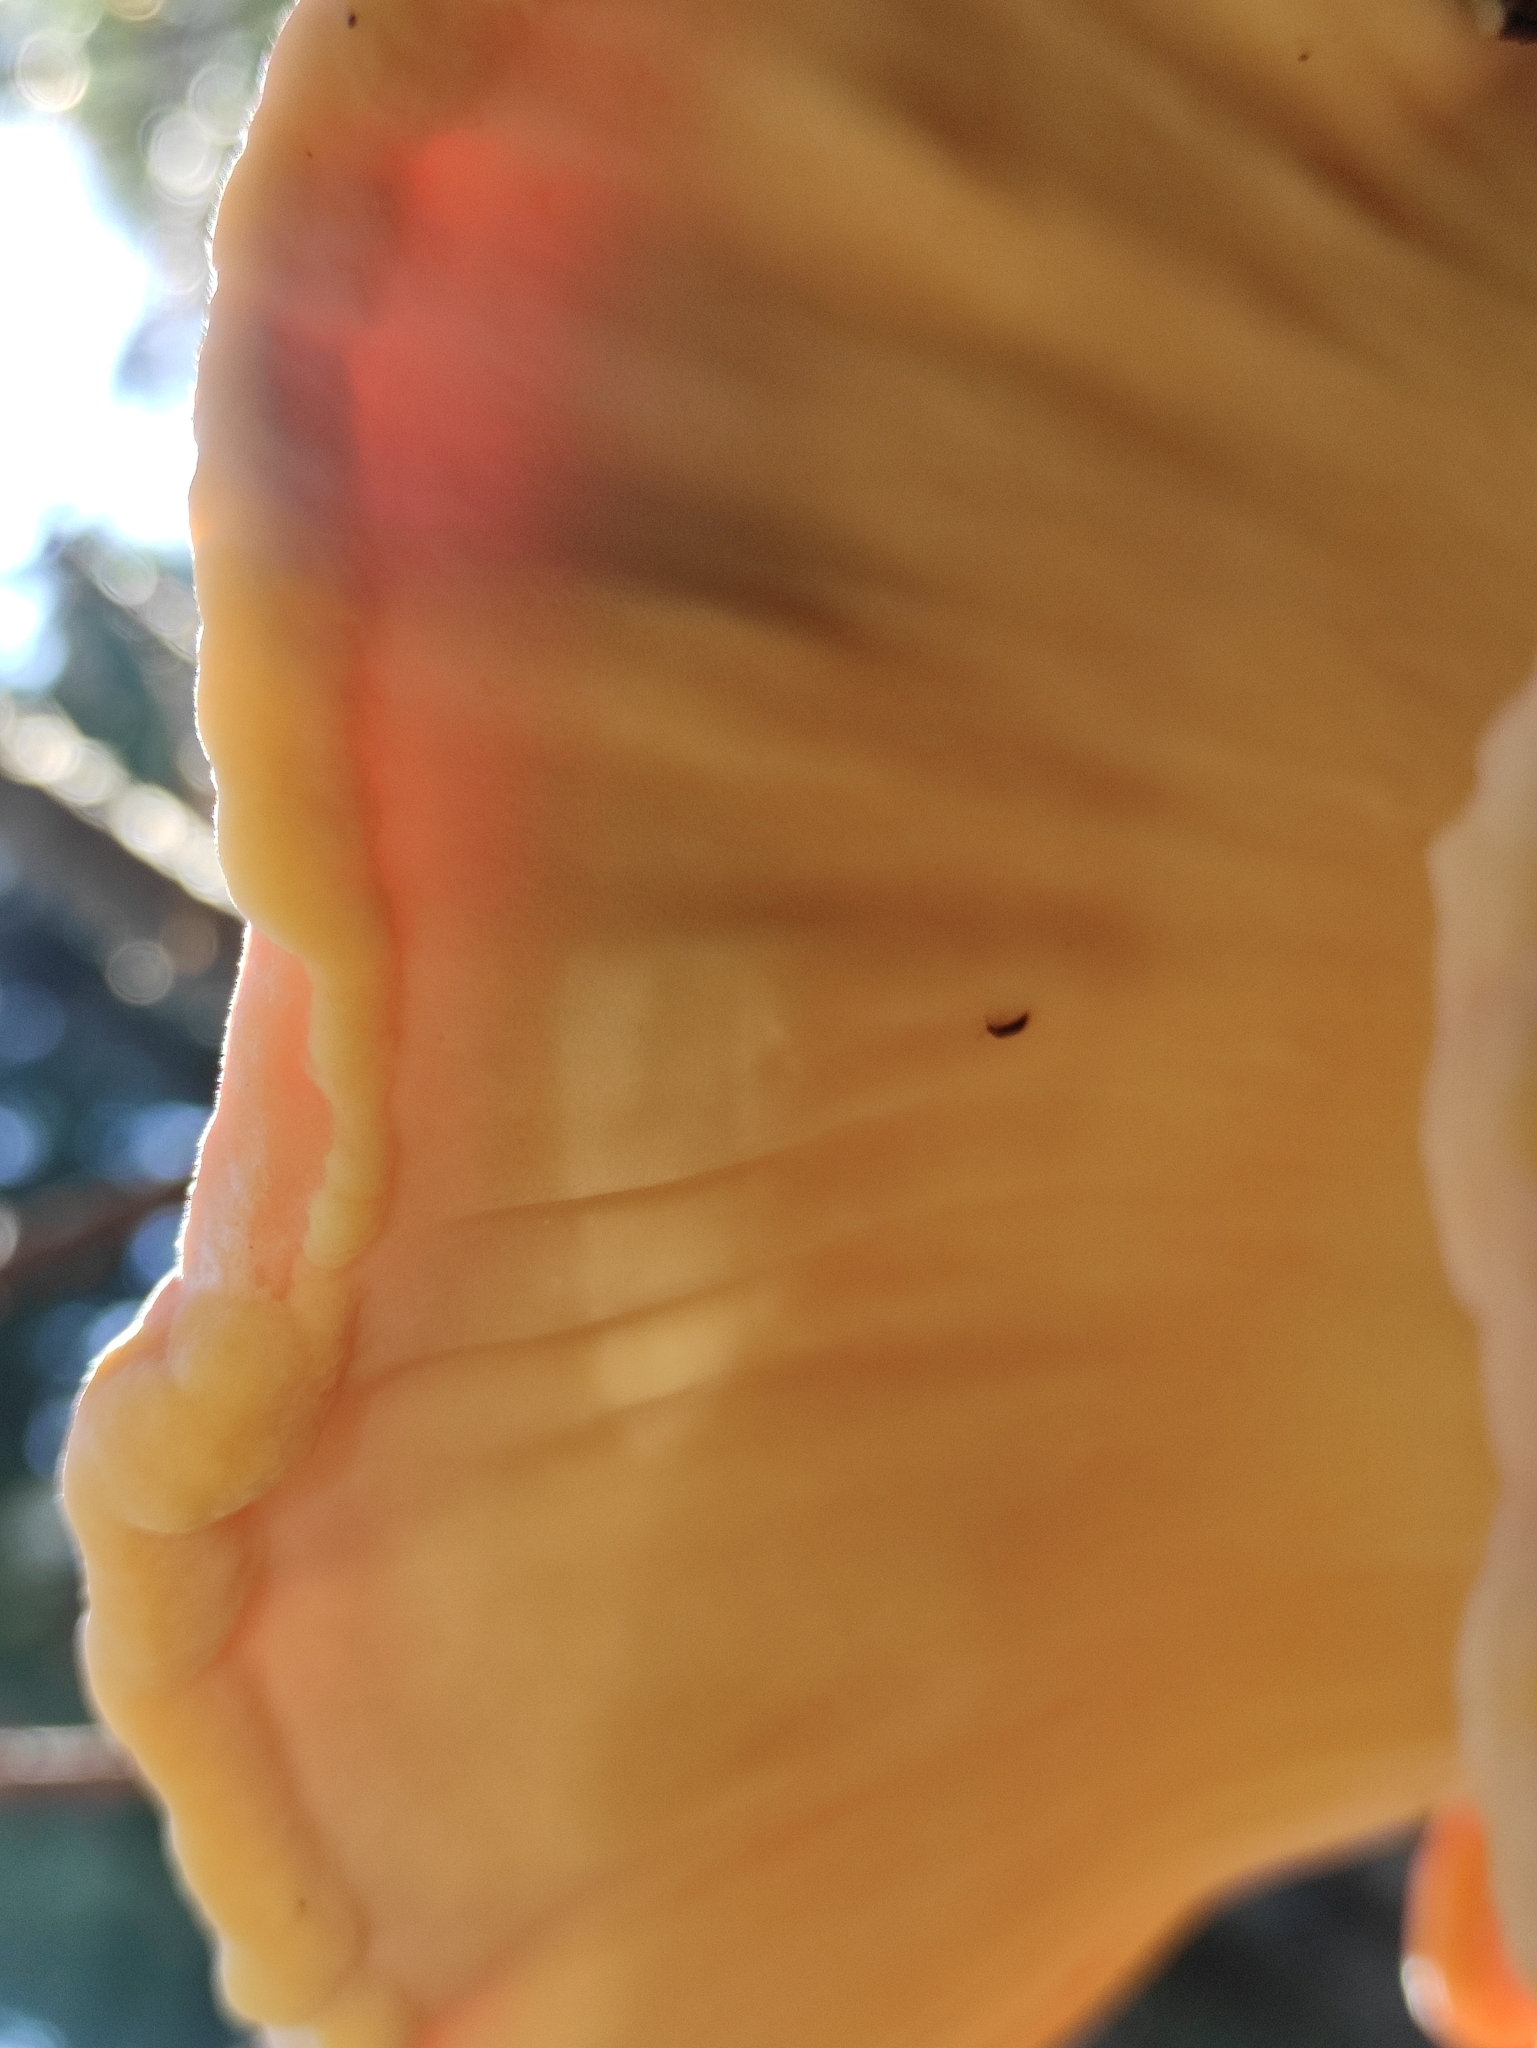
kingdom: Fungi
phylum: Basidiomycota
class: Agaricomycetes
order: Polyporales
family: Laetiporaceae
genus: Laetiporus
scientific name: Laetiporus sulphureus
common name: Chicken of the woods
